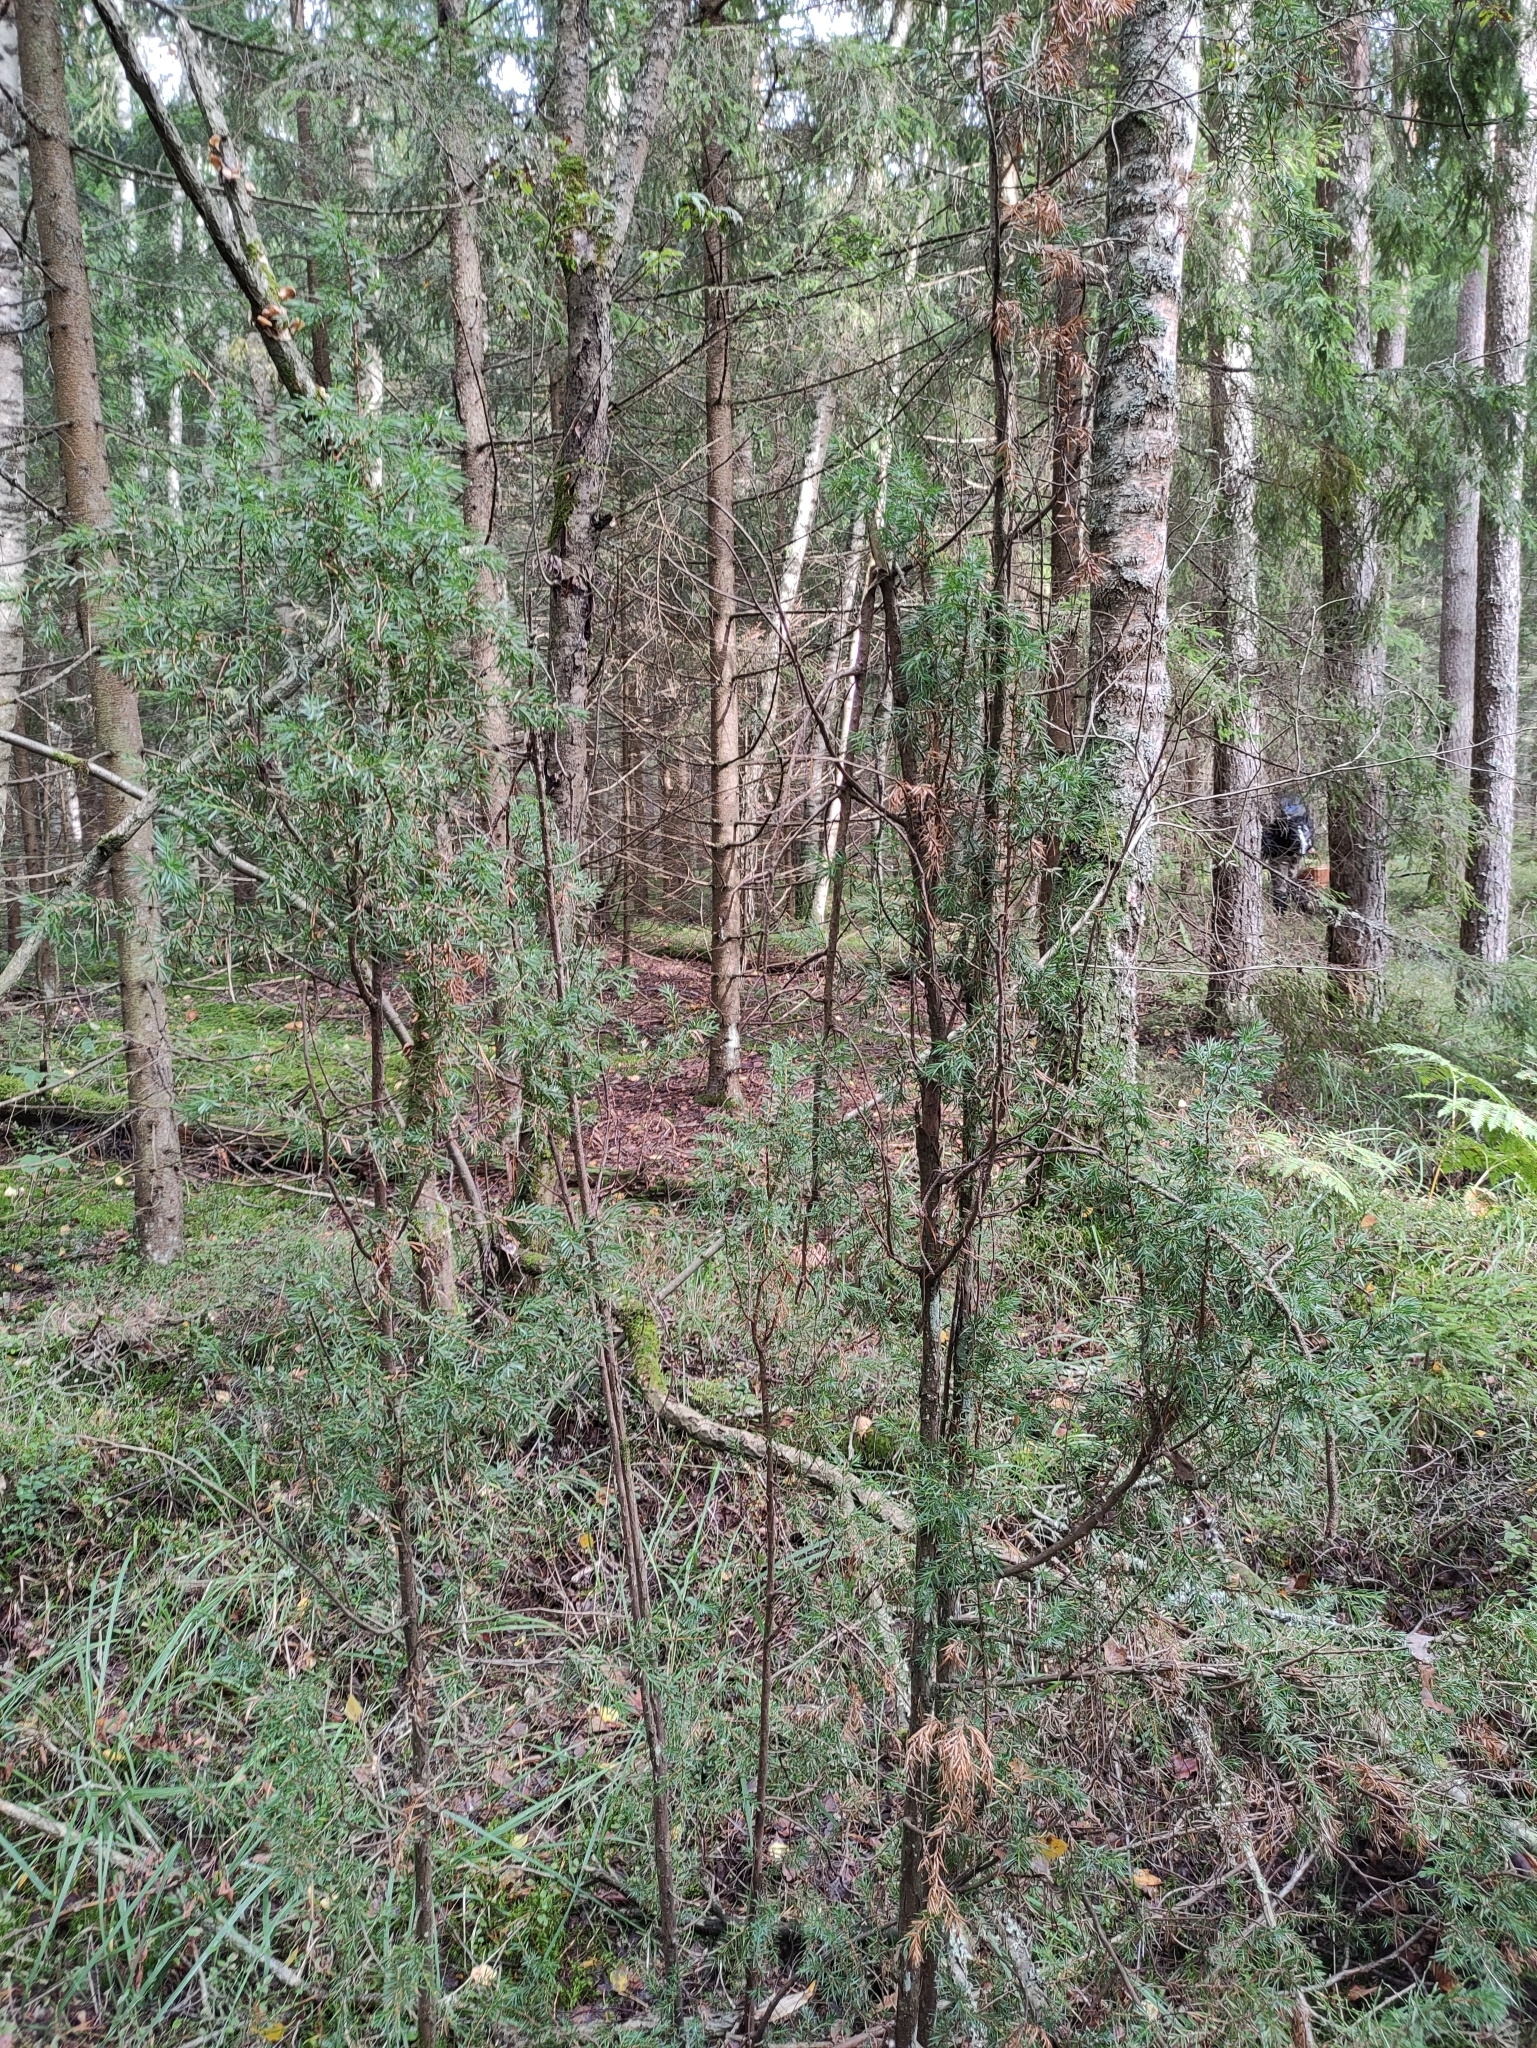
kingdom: Plantae
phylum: Tracheophyta
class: Pinopsida
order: Pinales
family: Cupressaceae
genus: Juniperus
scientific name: Juniperus communis
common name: Common juniper
